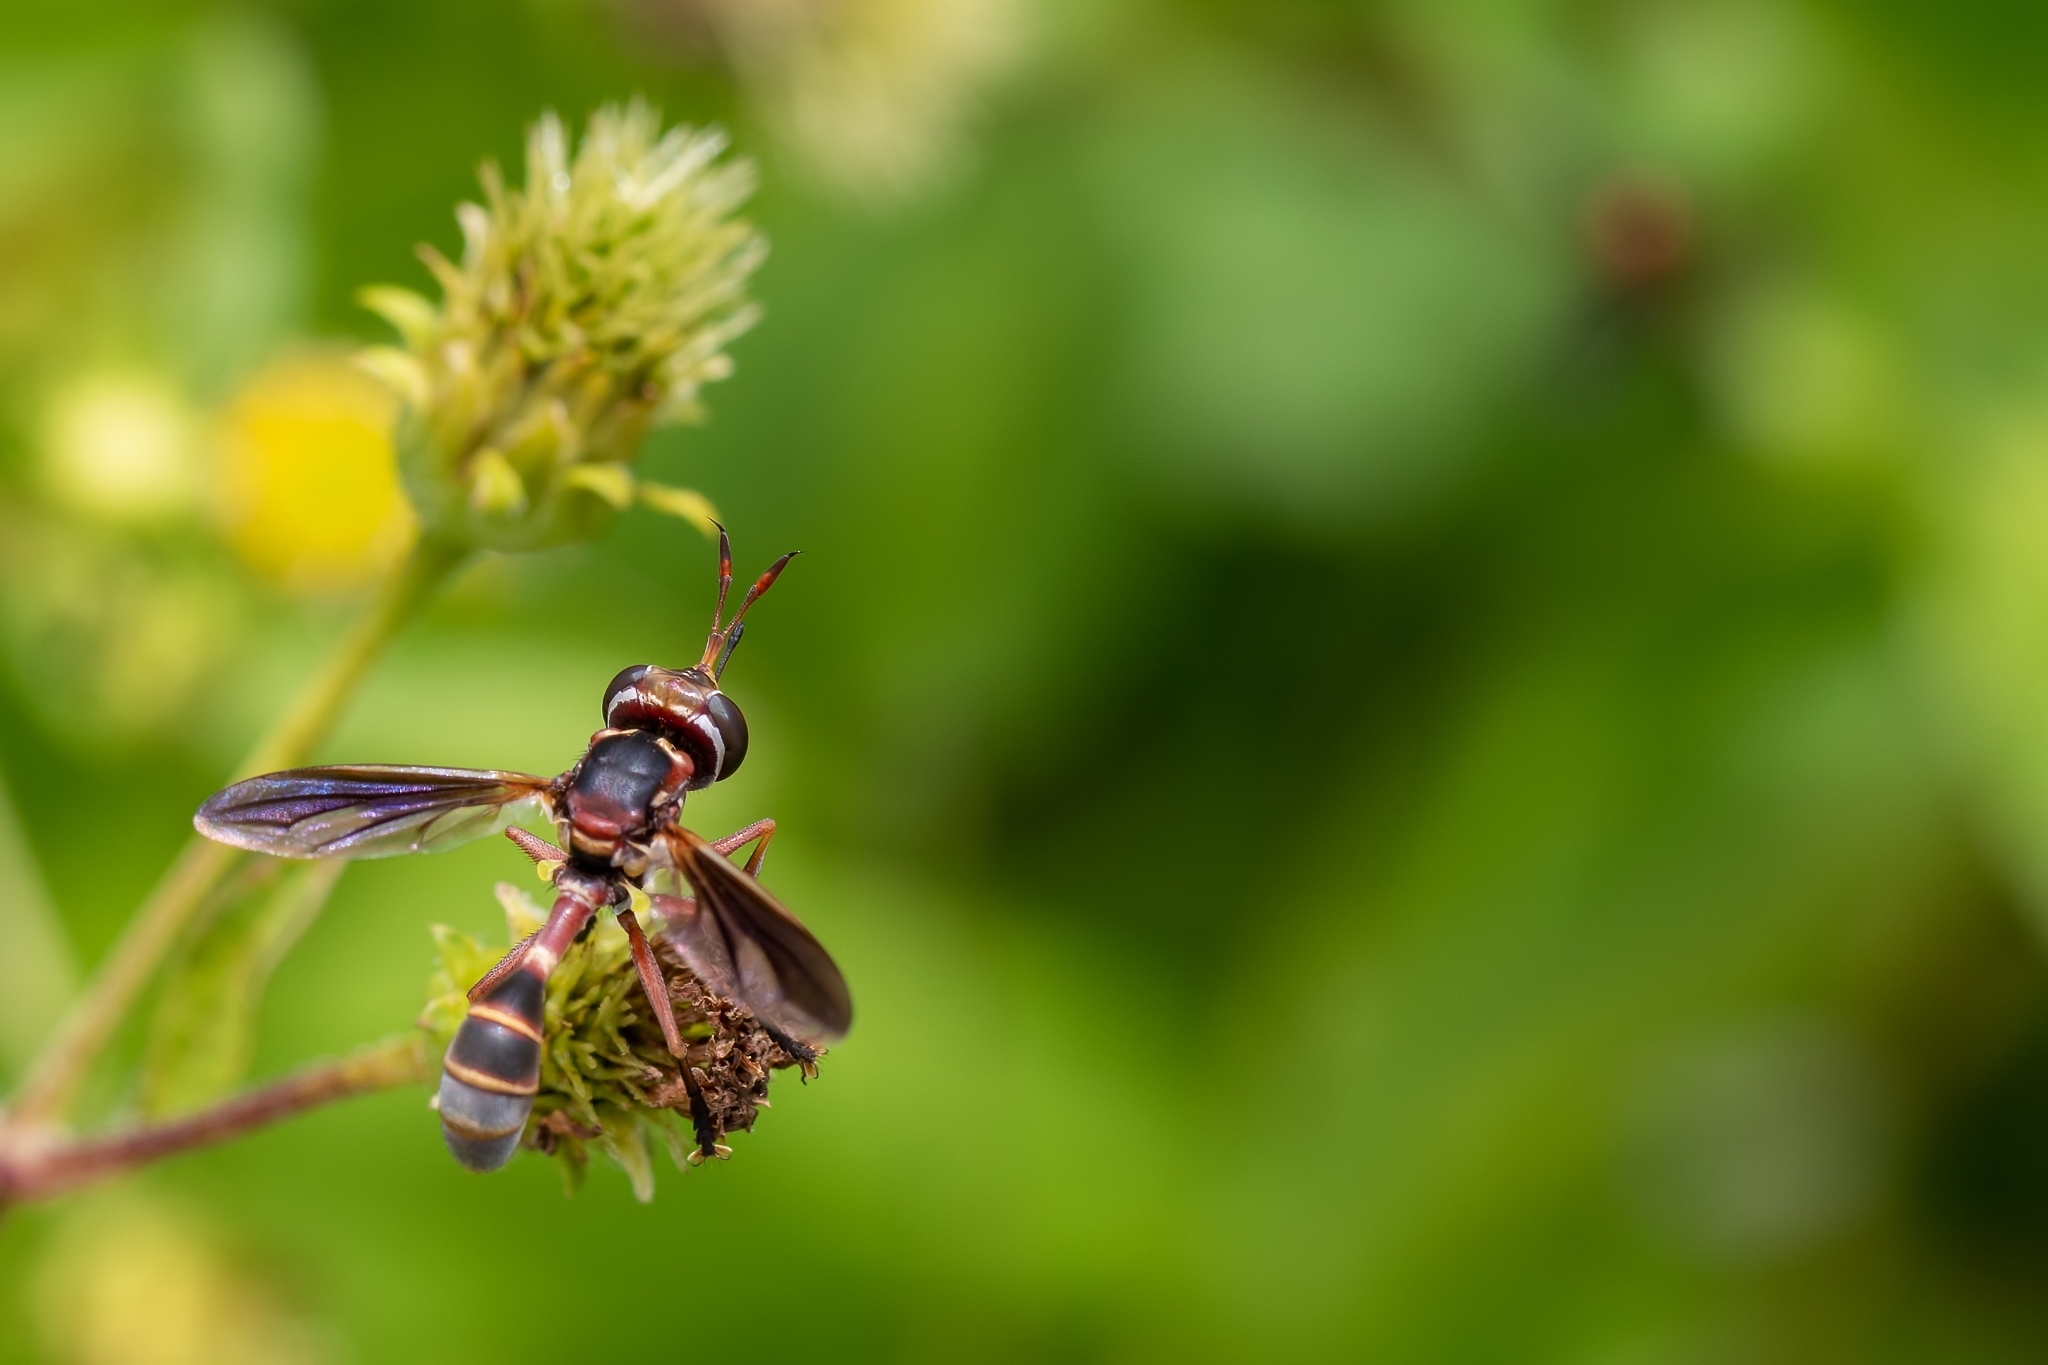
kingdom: Animalia
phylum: Arthropoda
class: Insecta
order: Diptera
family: Conopidae
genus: Physoconops
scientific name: Physoconops excisus
